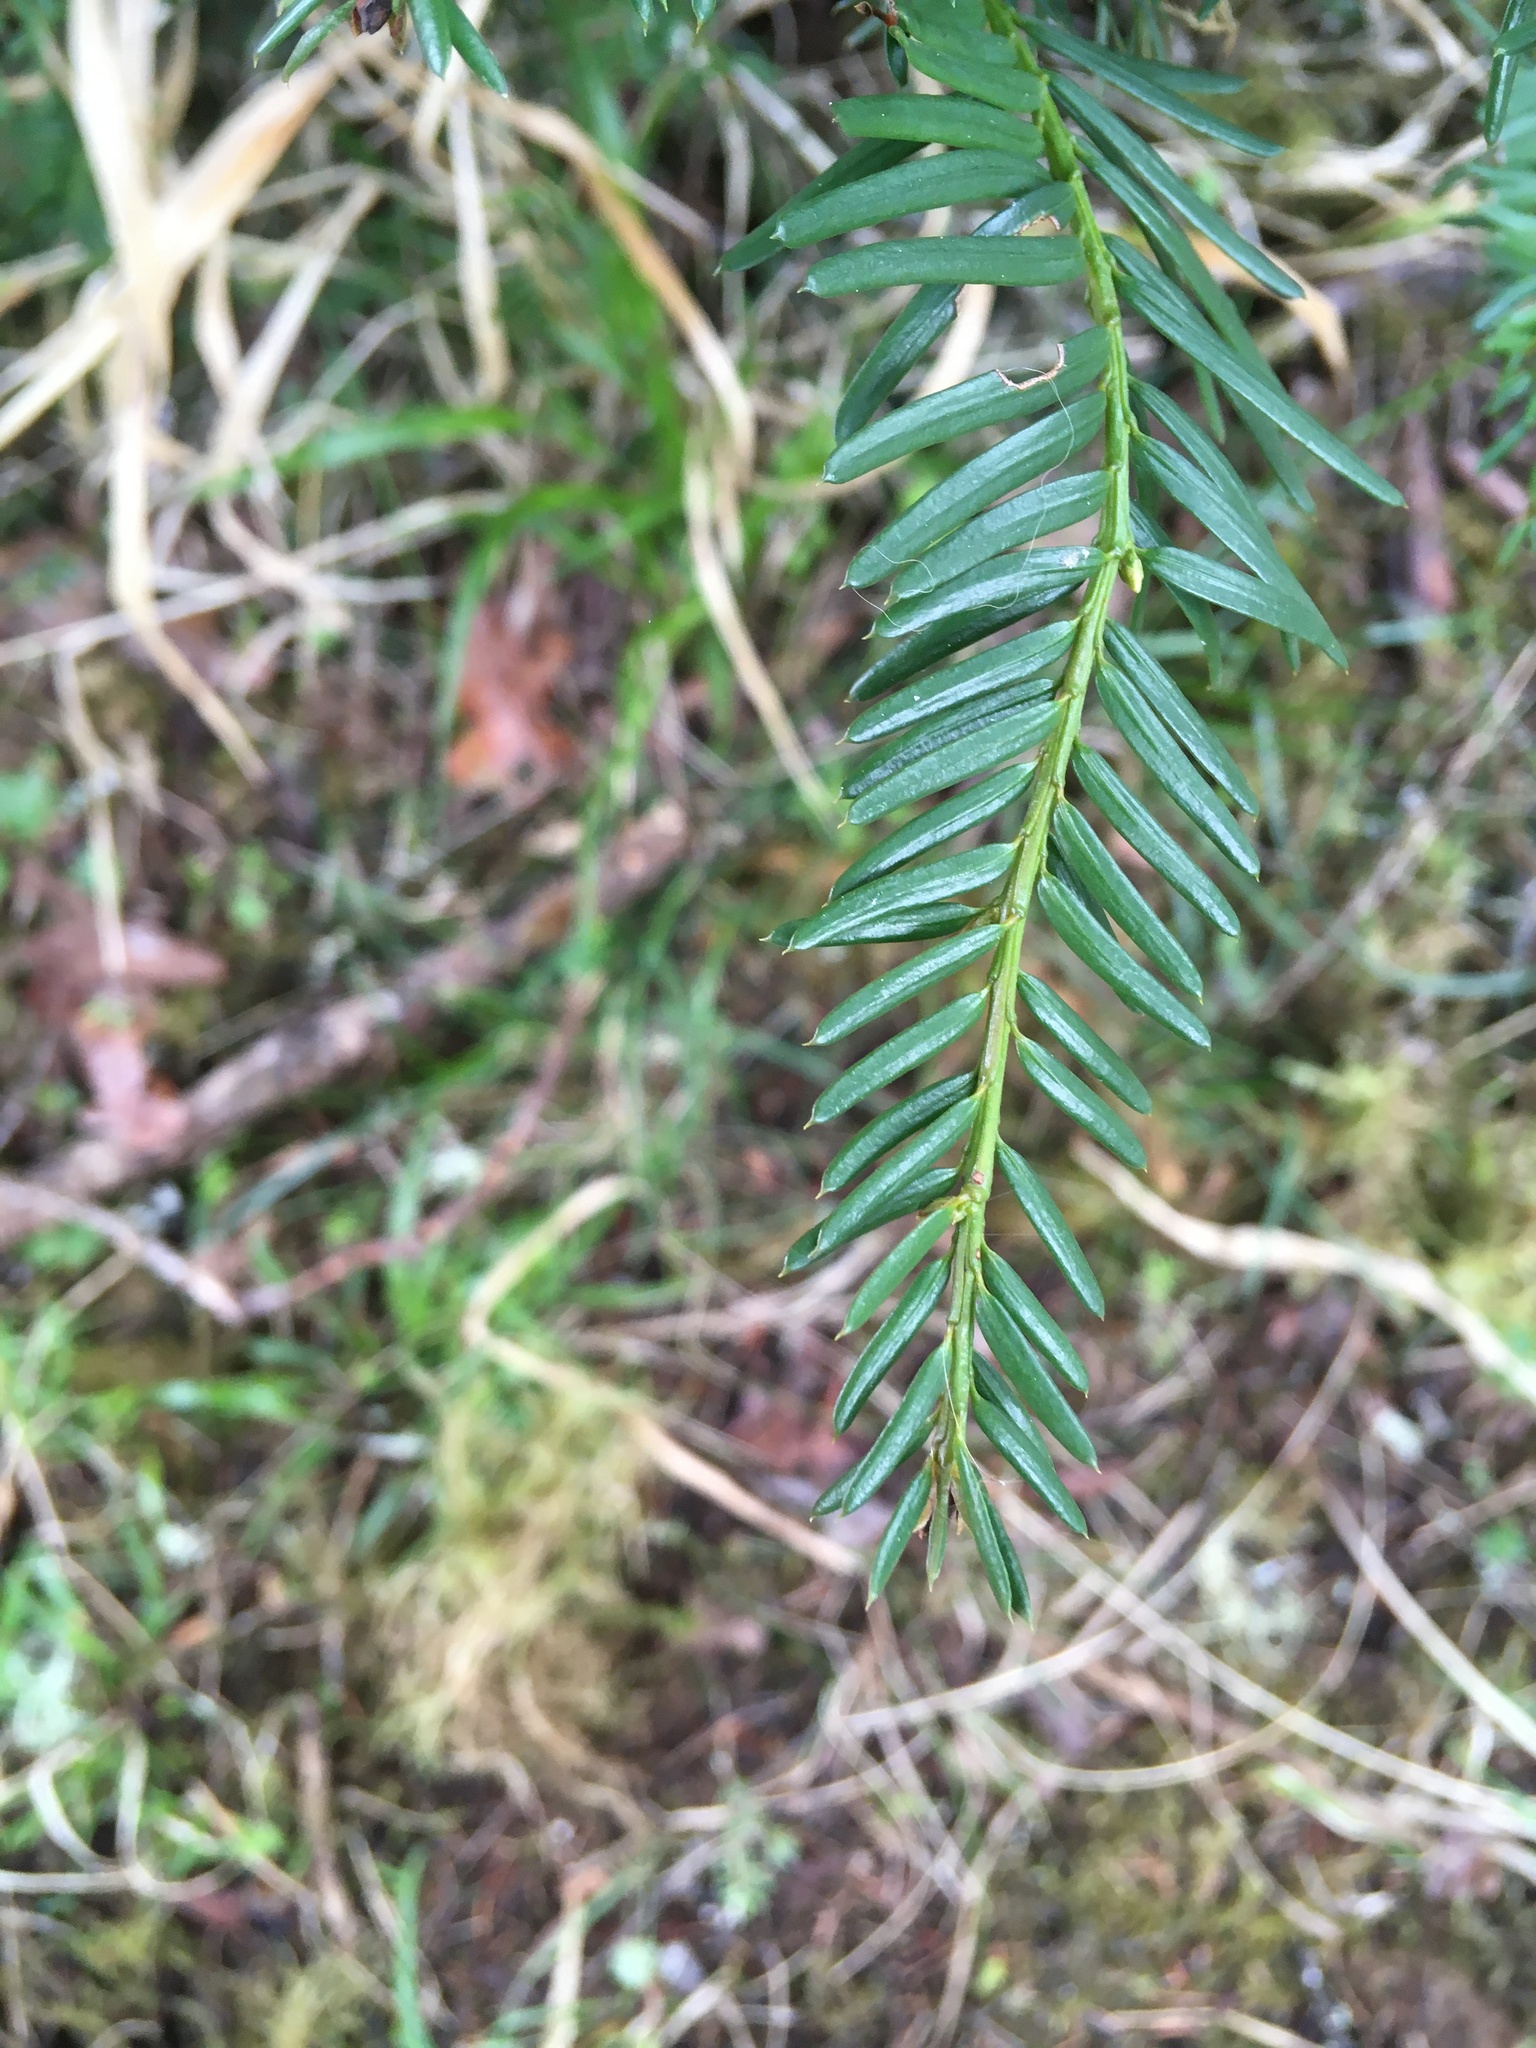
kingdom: Plantae
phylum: Tracheophyta
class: Pinopsida
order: Pinales
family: Taxaceae
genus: Taxus
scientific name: Taxus brevifolia
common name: Pacific yew
